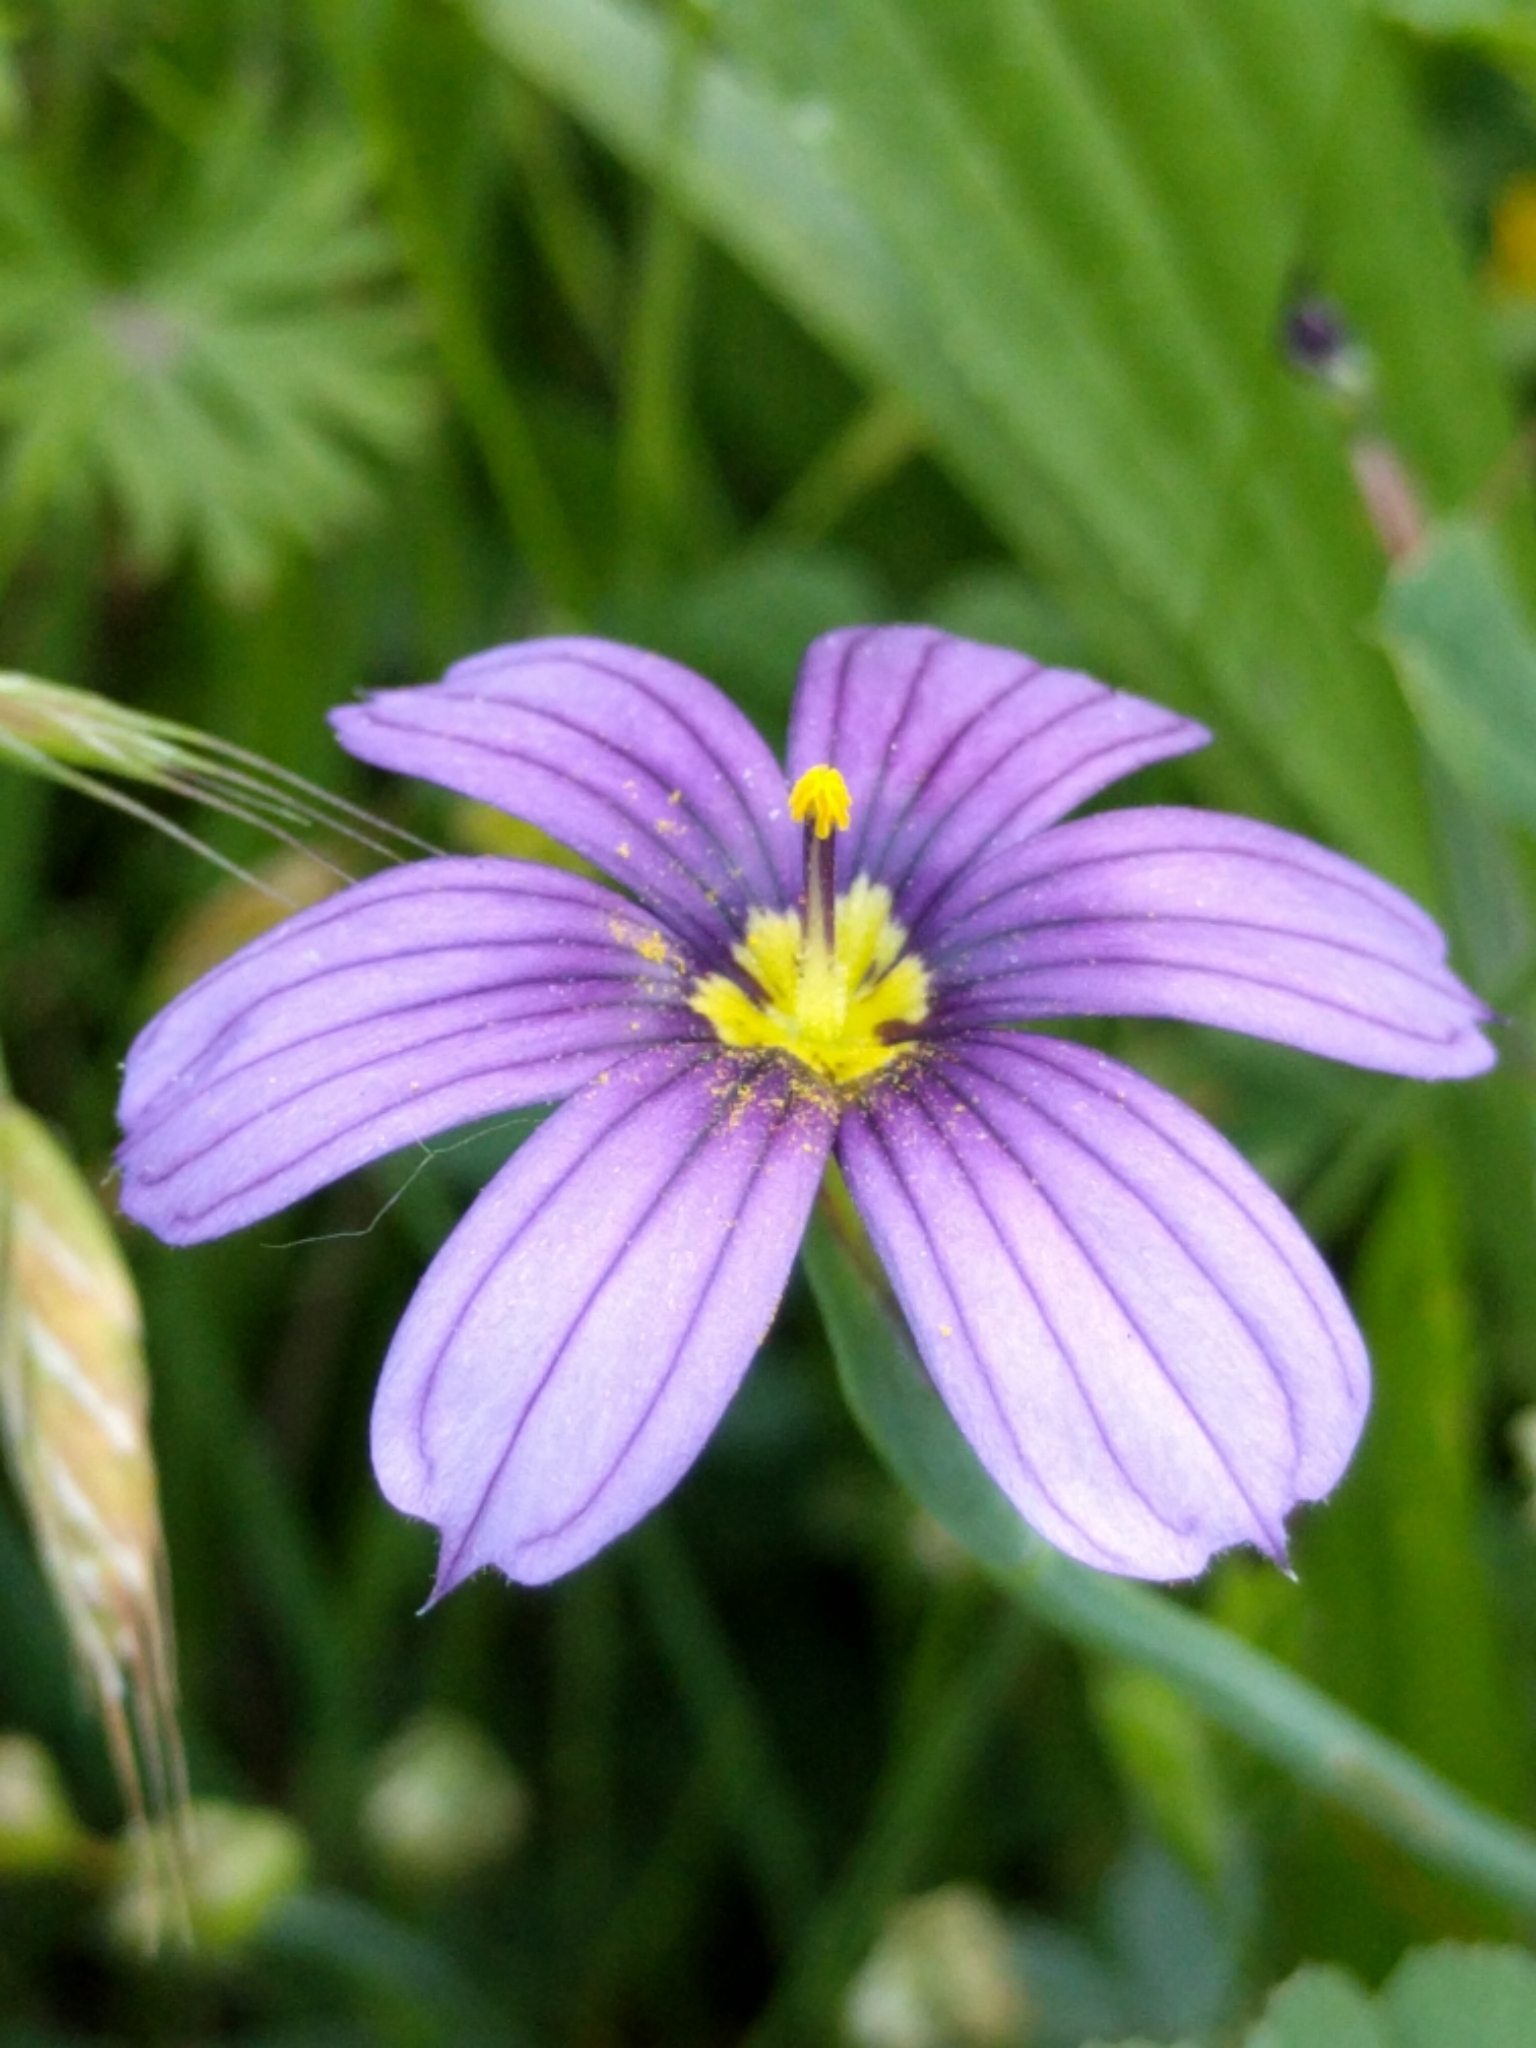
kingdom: Plantae
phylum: Tracheophyta
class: Liliopsida
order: Asparagales
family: Iridaceae
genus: Sisyrinchium
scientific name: Sisyrinchium bellum
